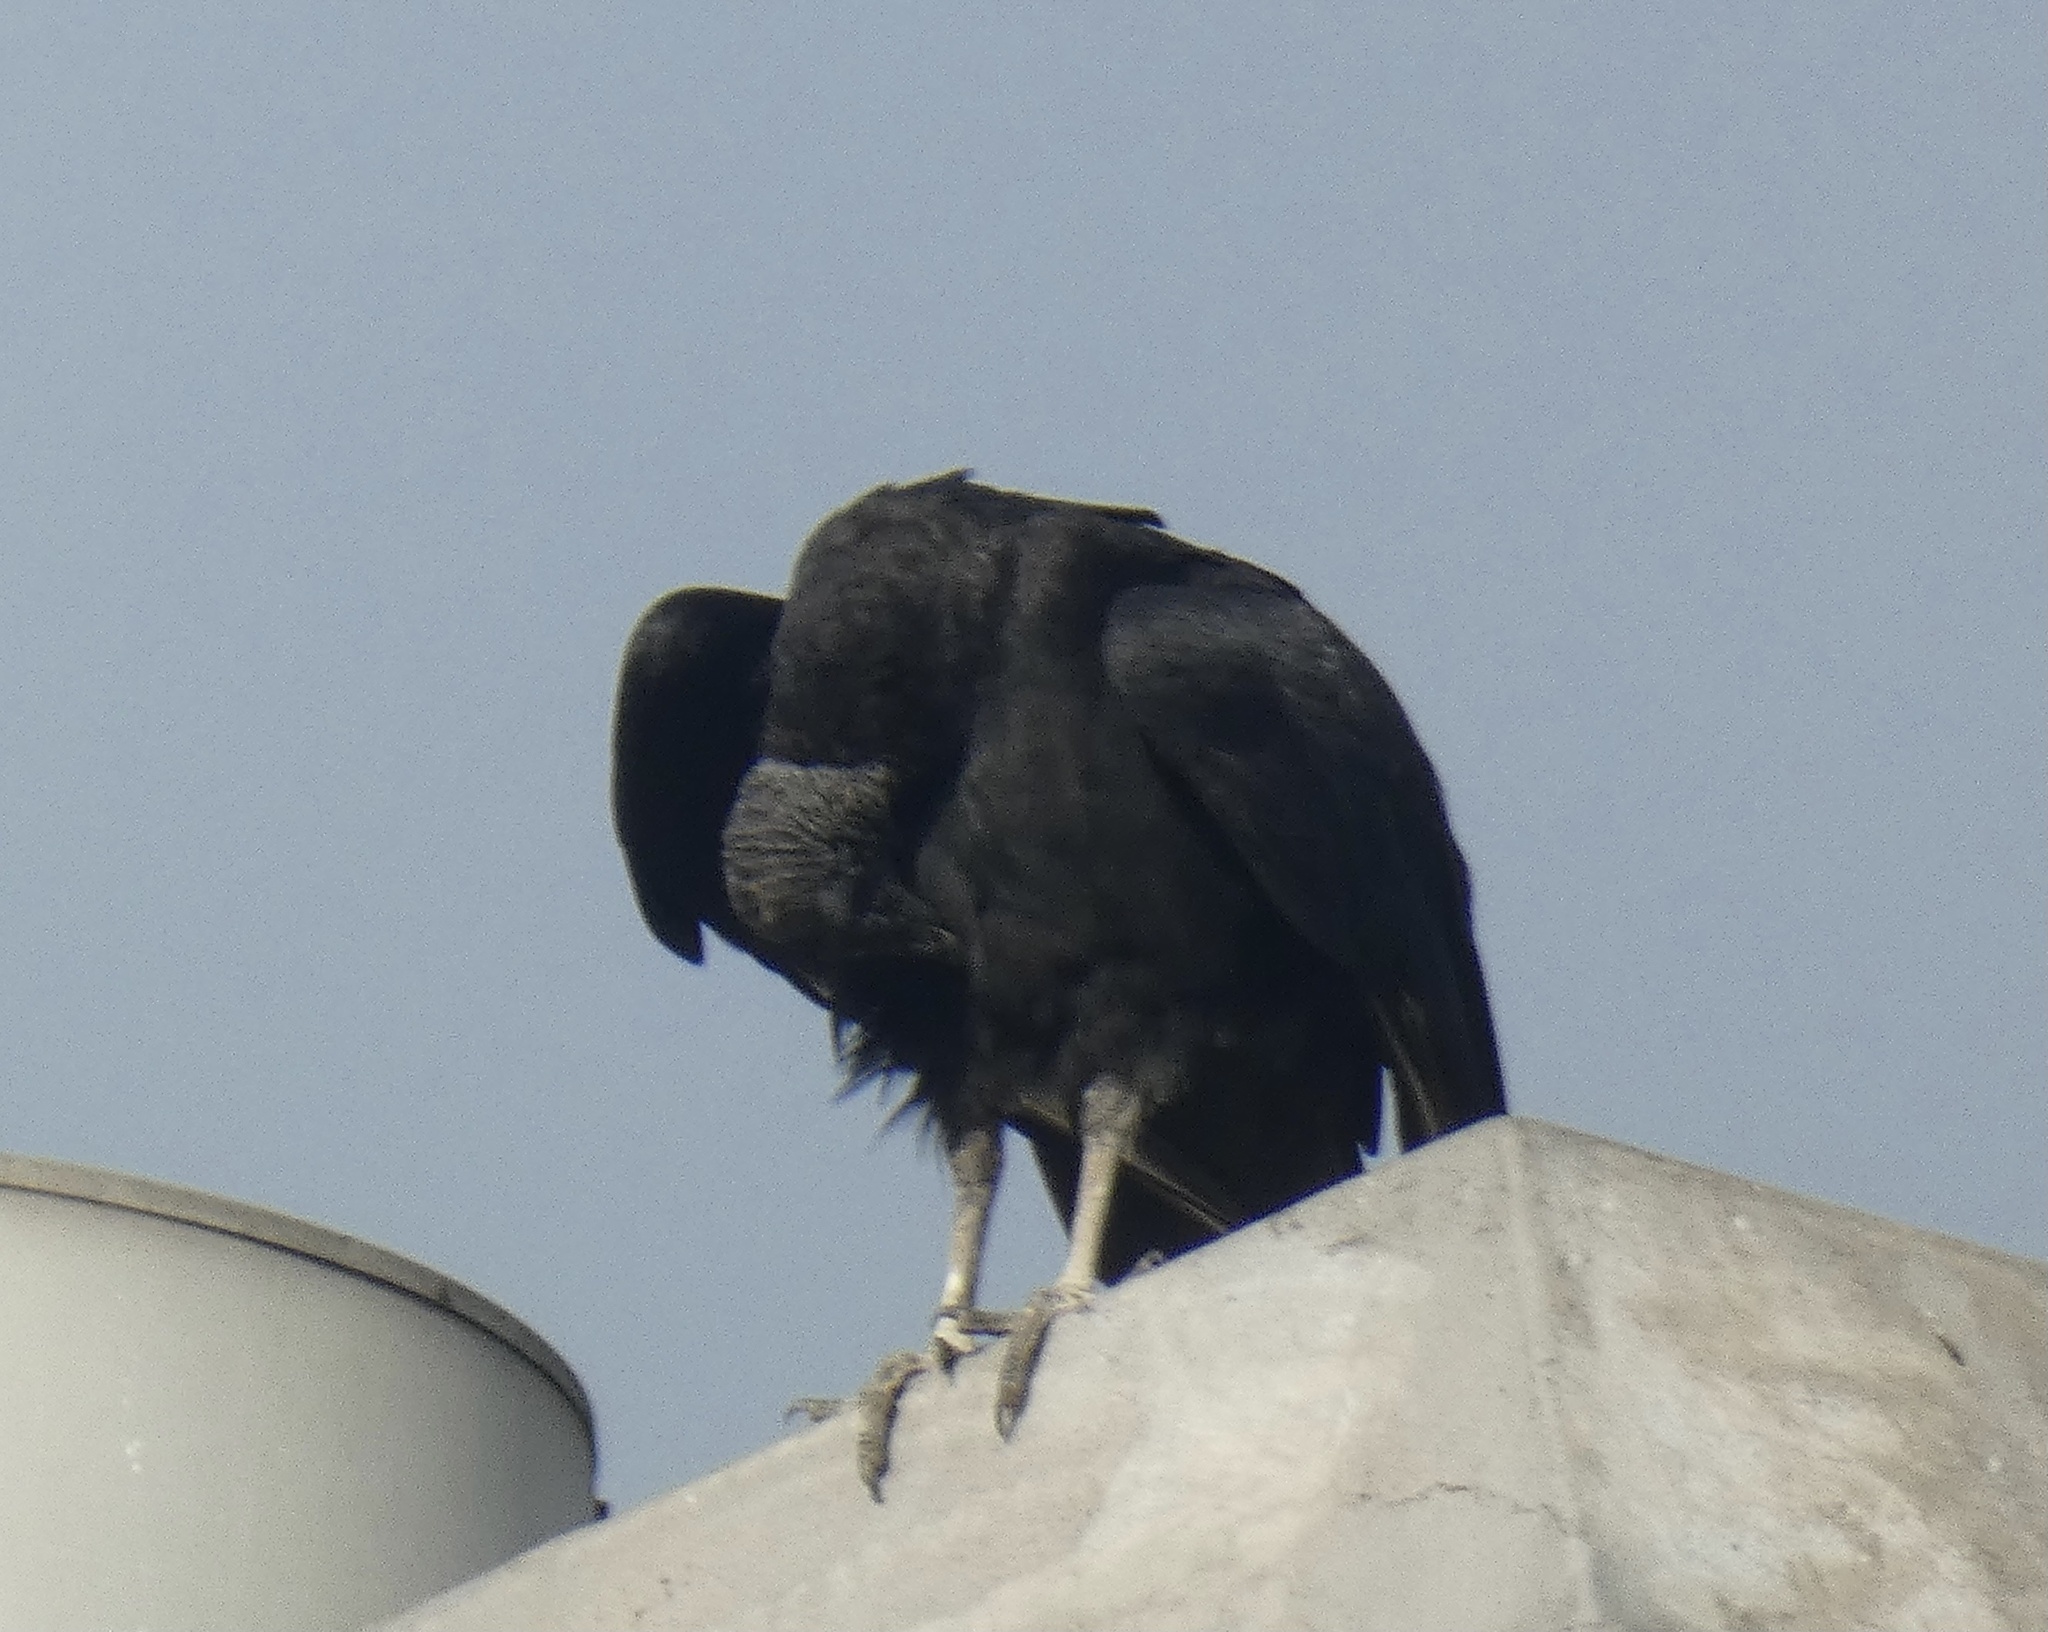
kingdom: Animalia
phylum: Chordata
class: Aves
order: Accipitriformes
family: Cathartidae
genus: Coragyps
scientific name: Coragyps atratus
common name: Black vulture
